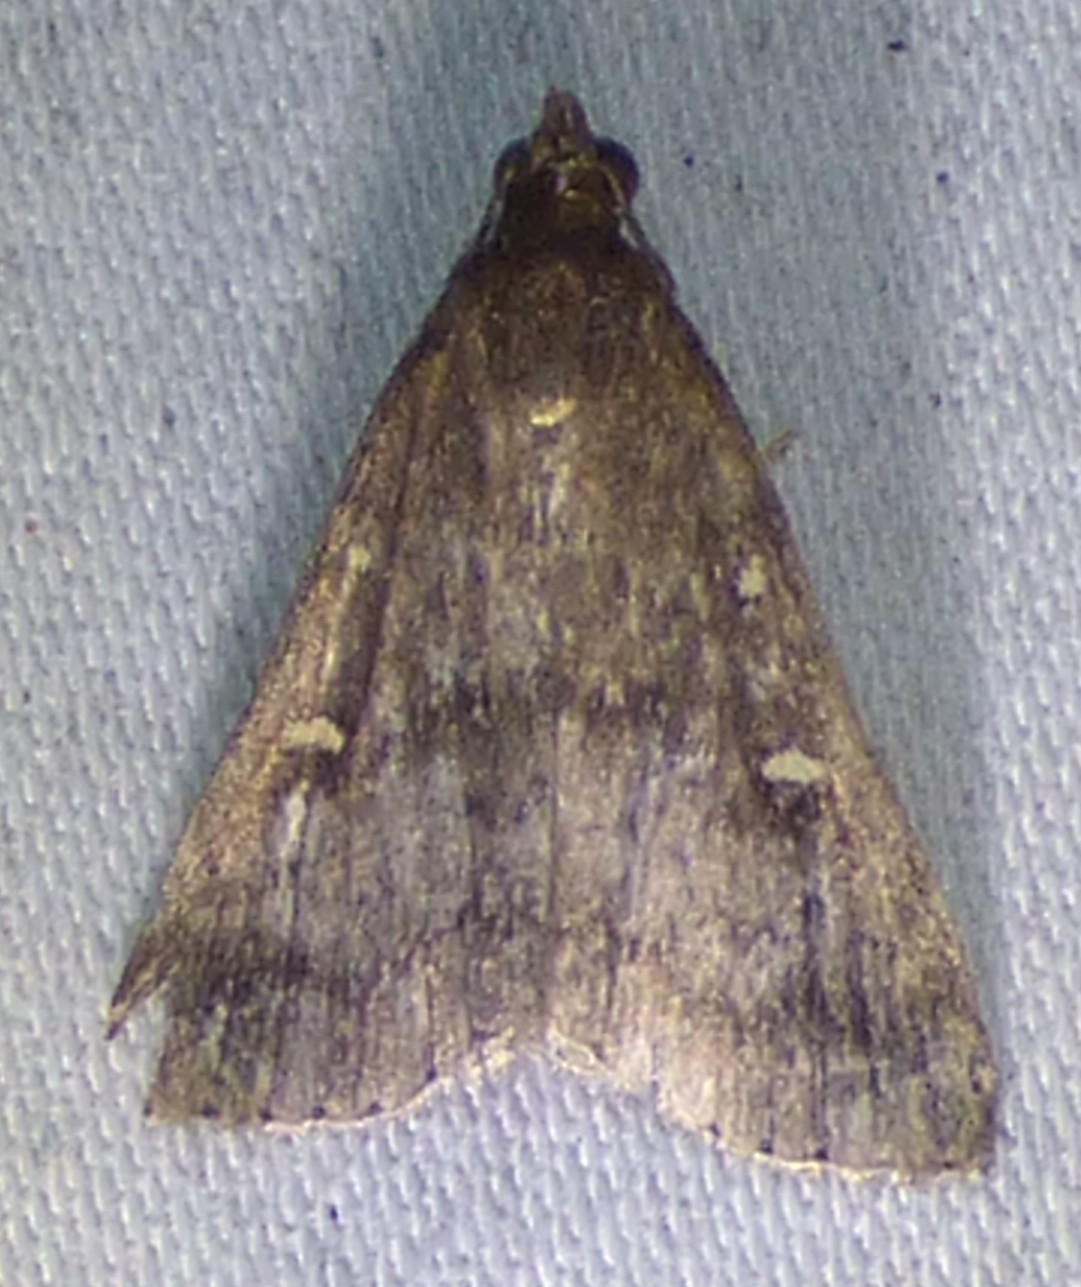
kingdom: Animalia
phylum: Arthropoda
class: Insecta
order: Lepidoptera
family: Erebidae
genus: Tetanolita
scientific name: Tetanolita mynesalis
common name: Smoky tetanolita moth
